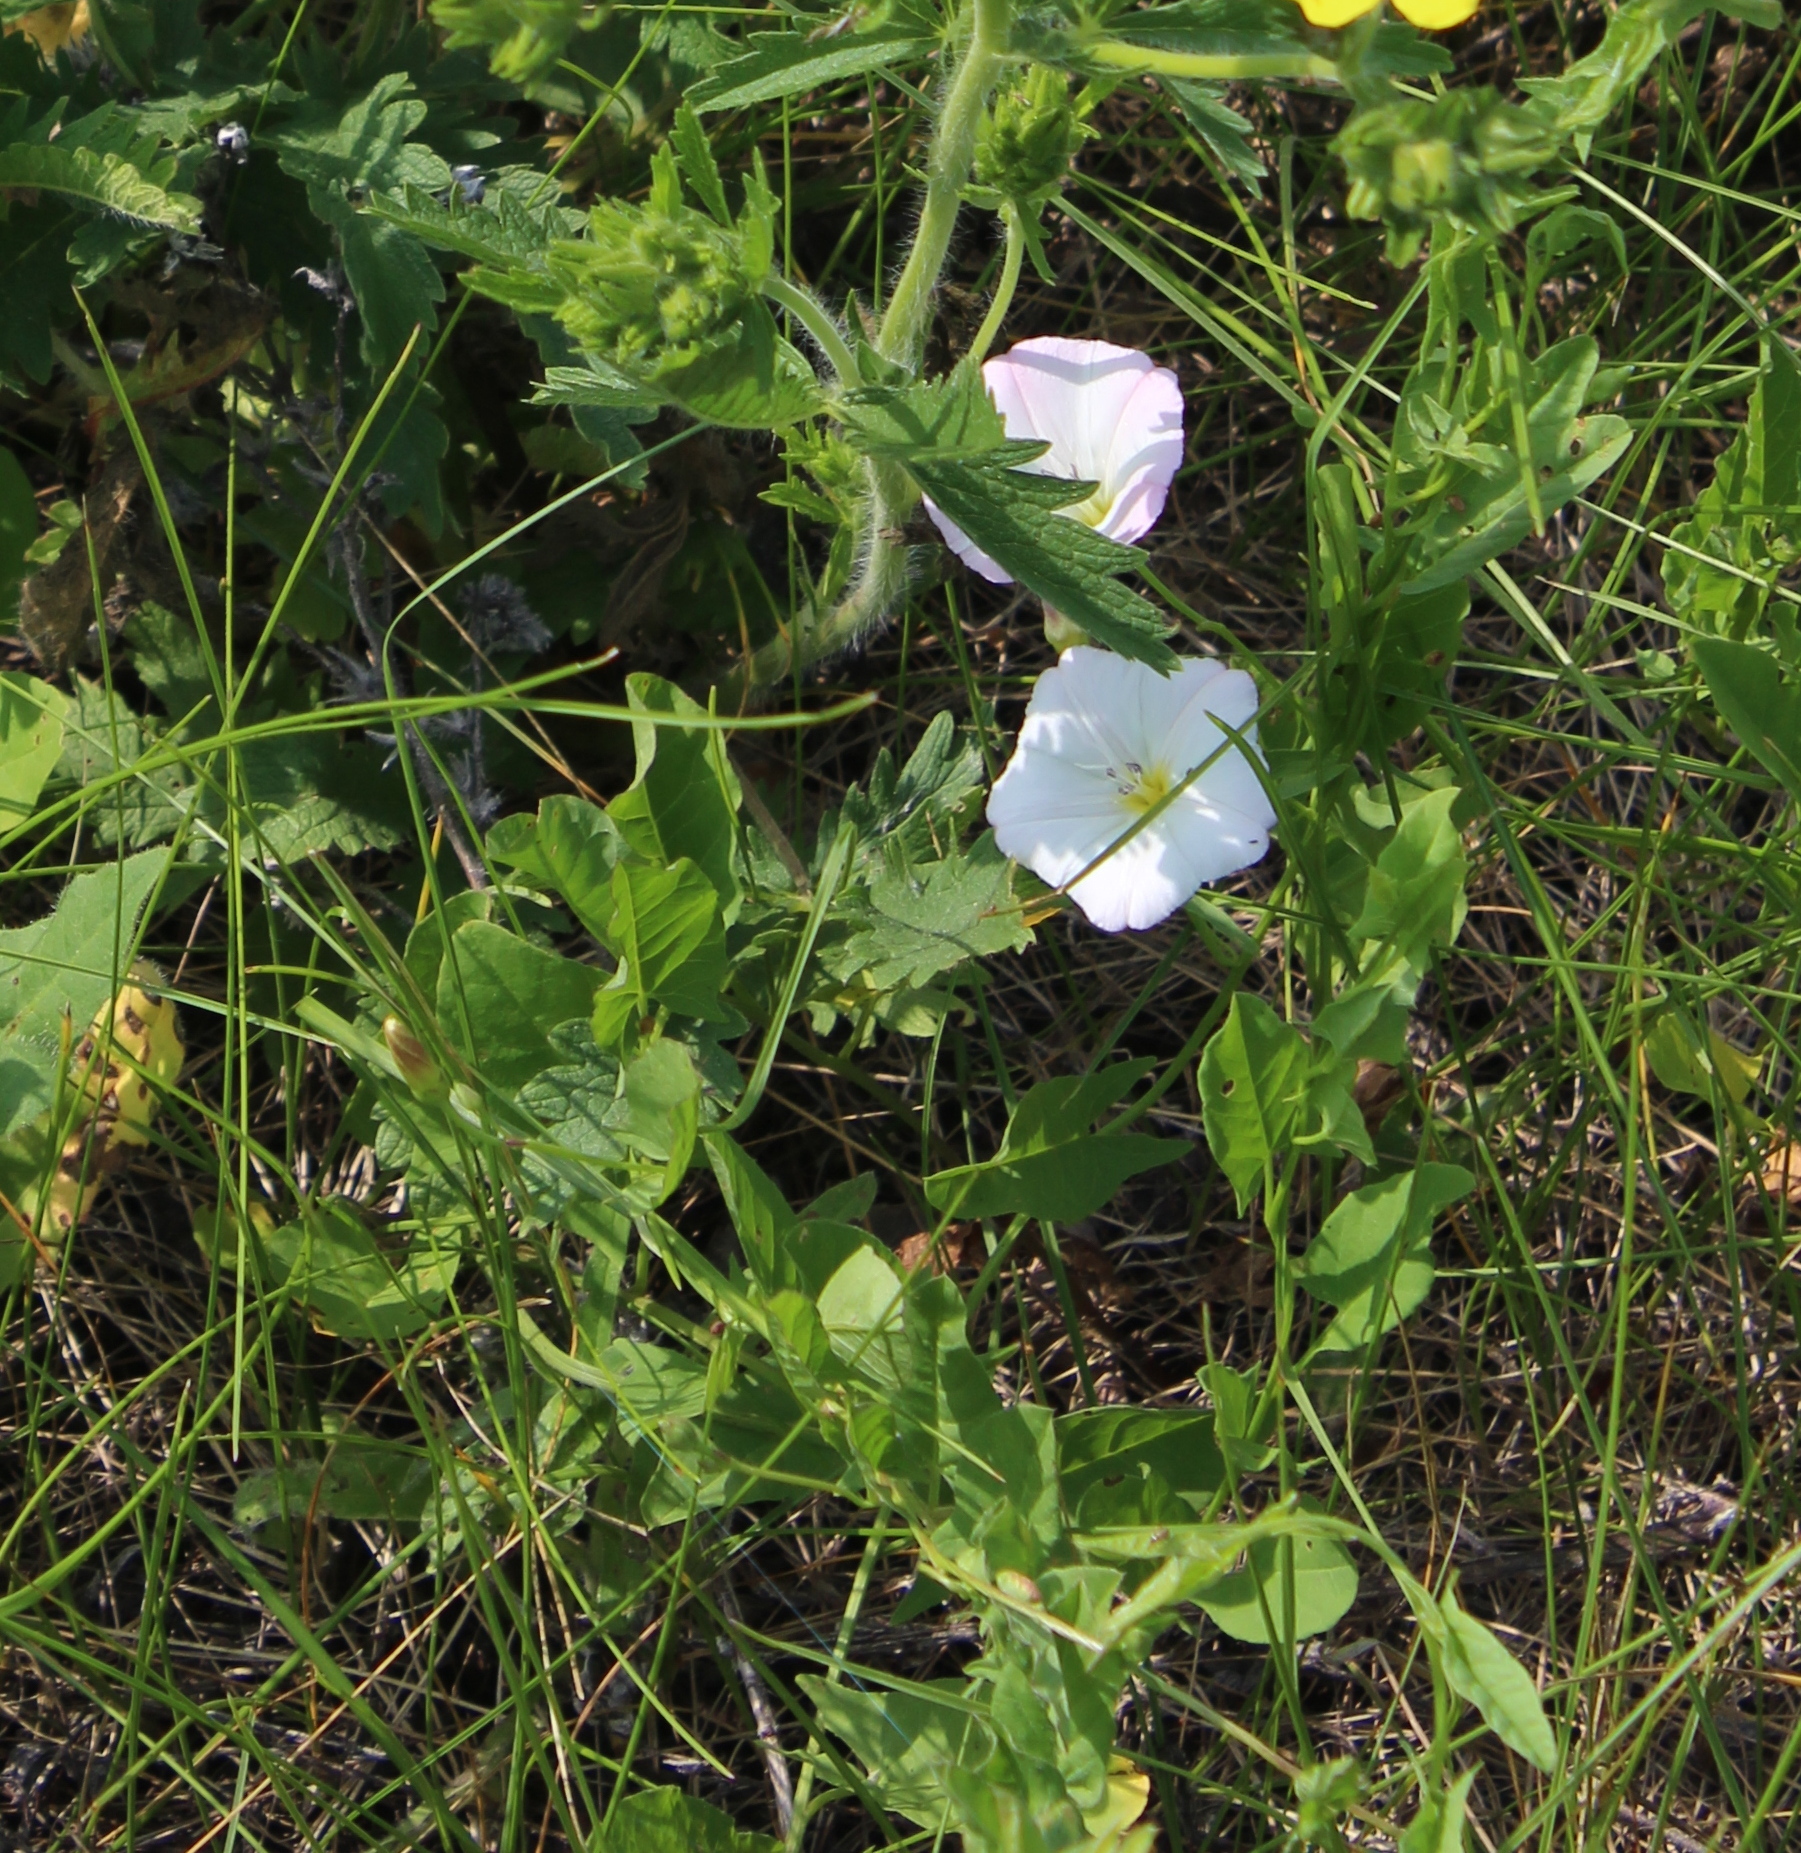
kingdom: Plantae
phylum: Tracheophyta
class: Magnoliopsida
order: Solanales
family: Convolvulaceae
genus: Convolvulus
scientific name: Convolvulus arvensis
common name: Field bindweed
